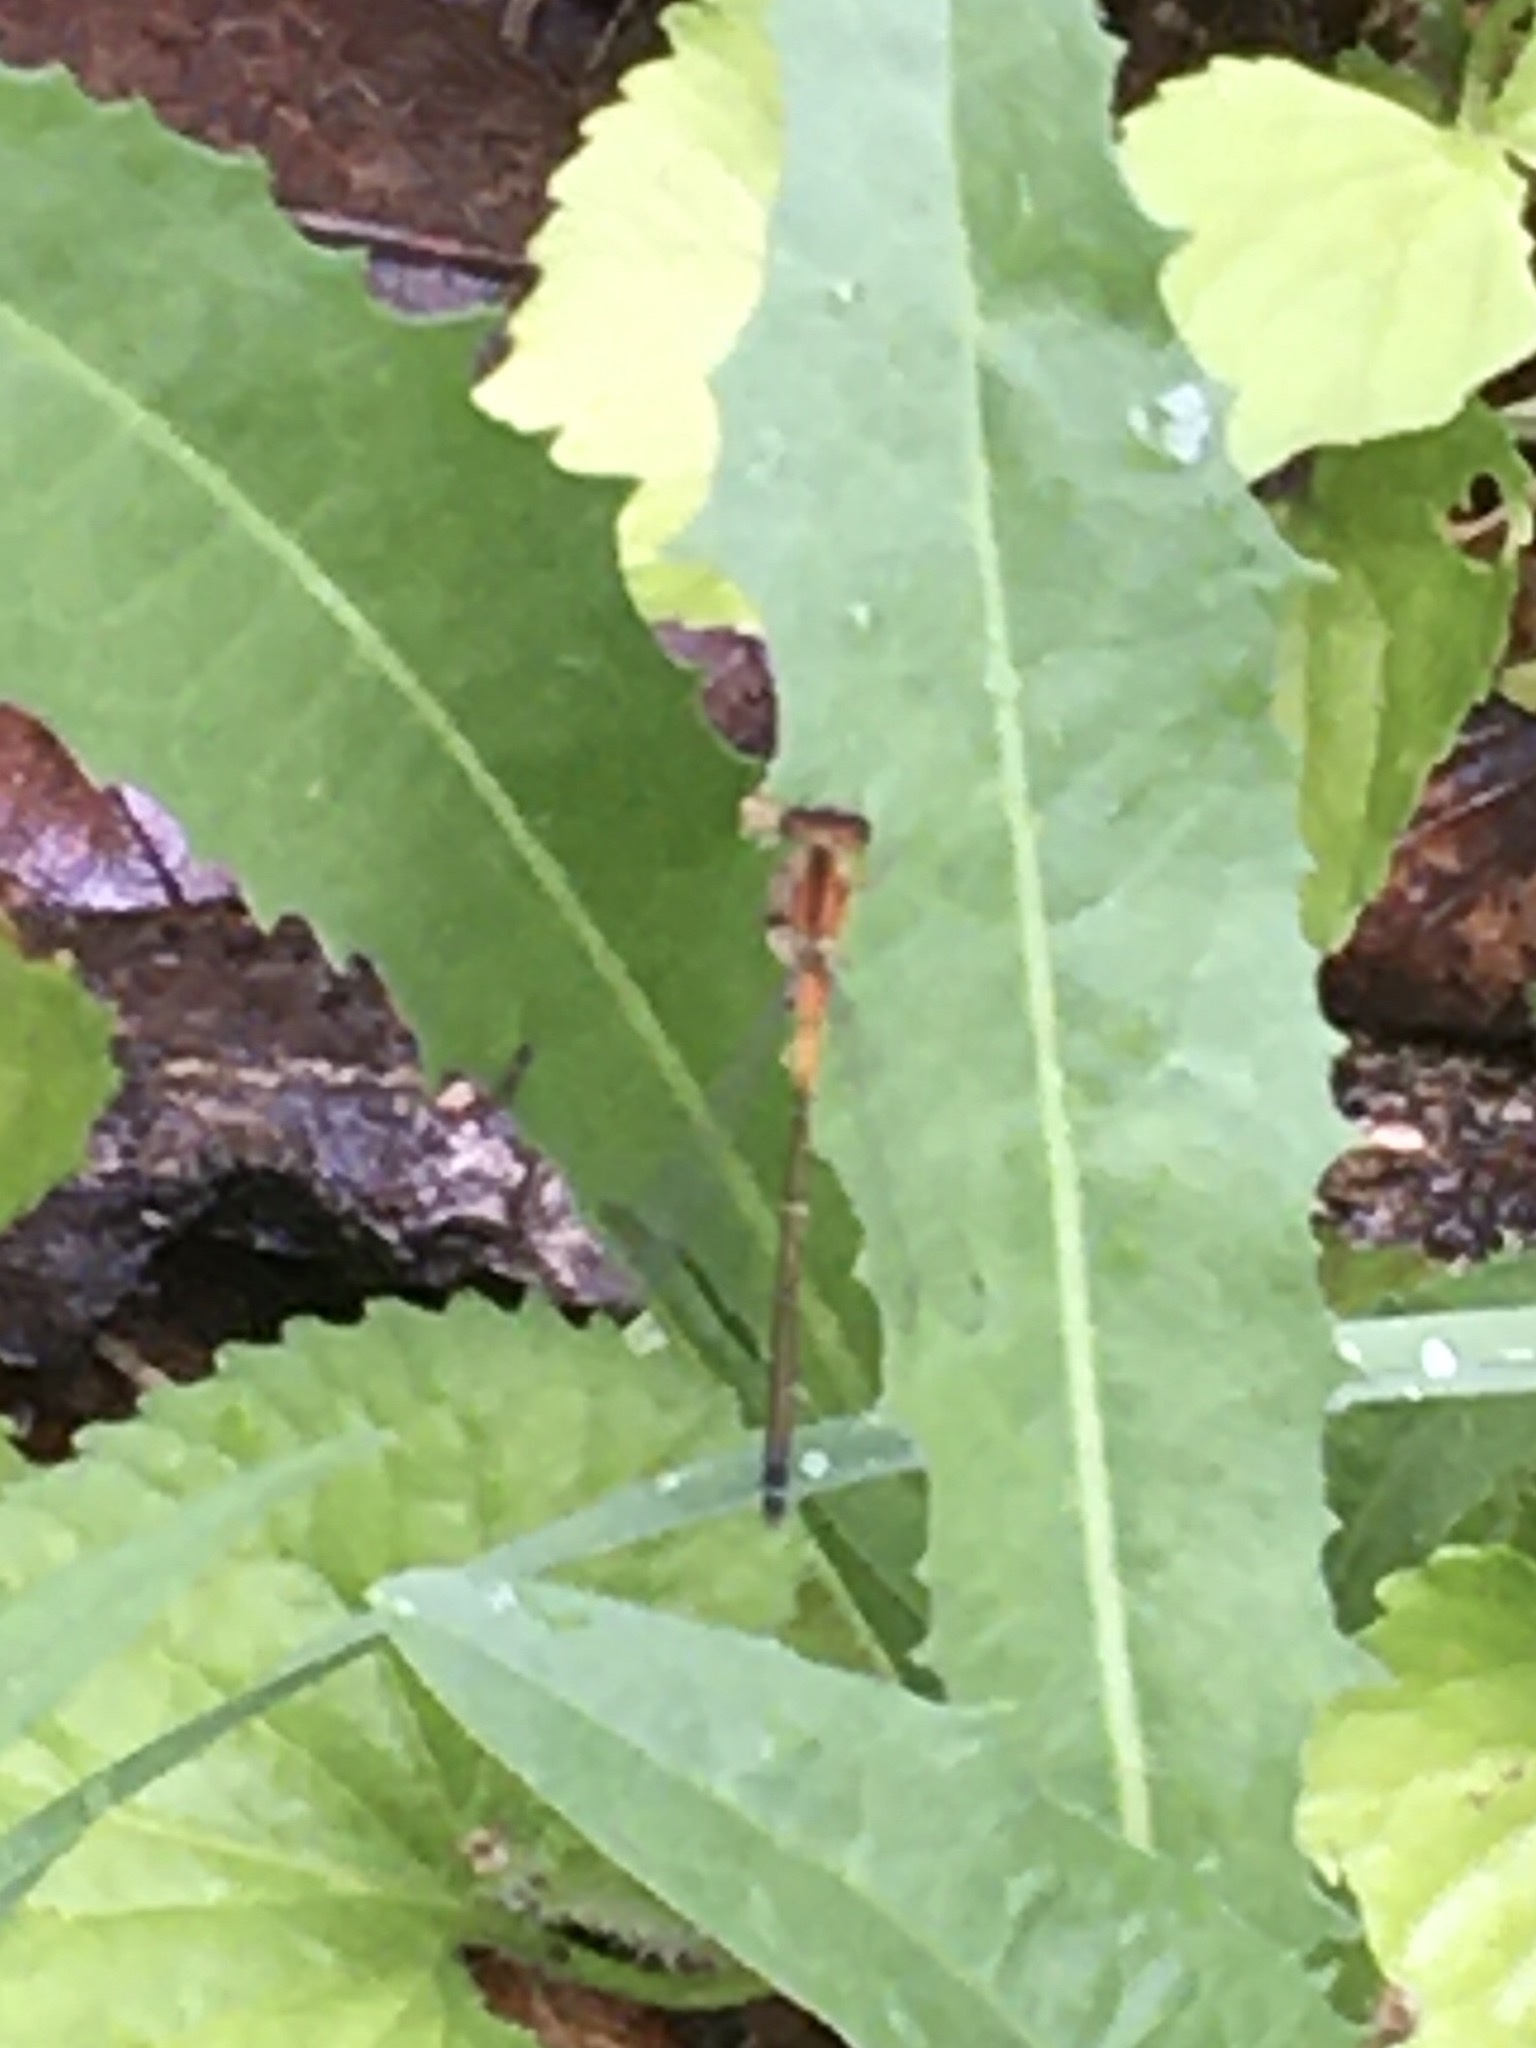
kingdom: Animalia
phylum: Arthropoda
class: Insecta
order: Odonata
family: Coenagrionidae
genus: Ischnura
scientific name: Ischnura verticalis
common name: Eastern forktail
